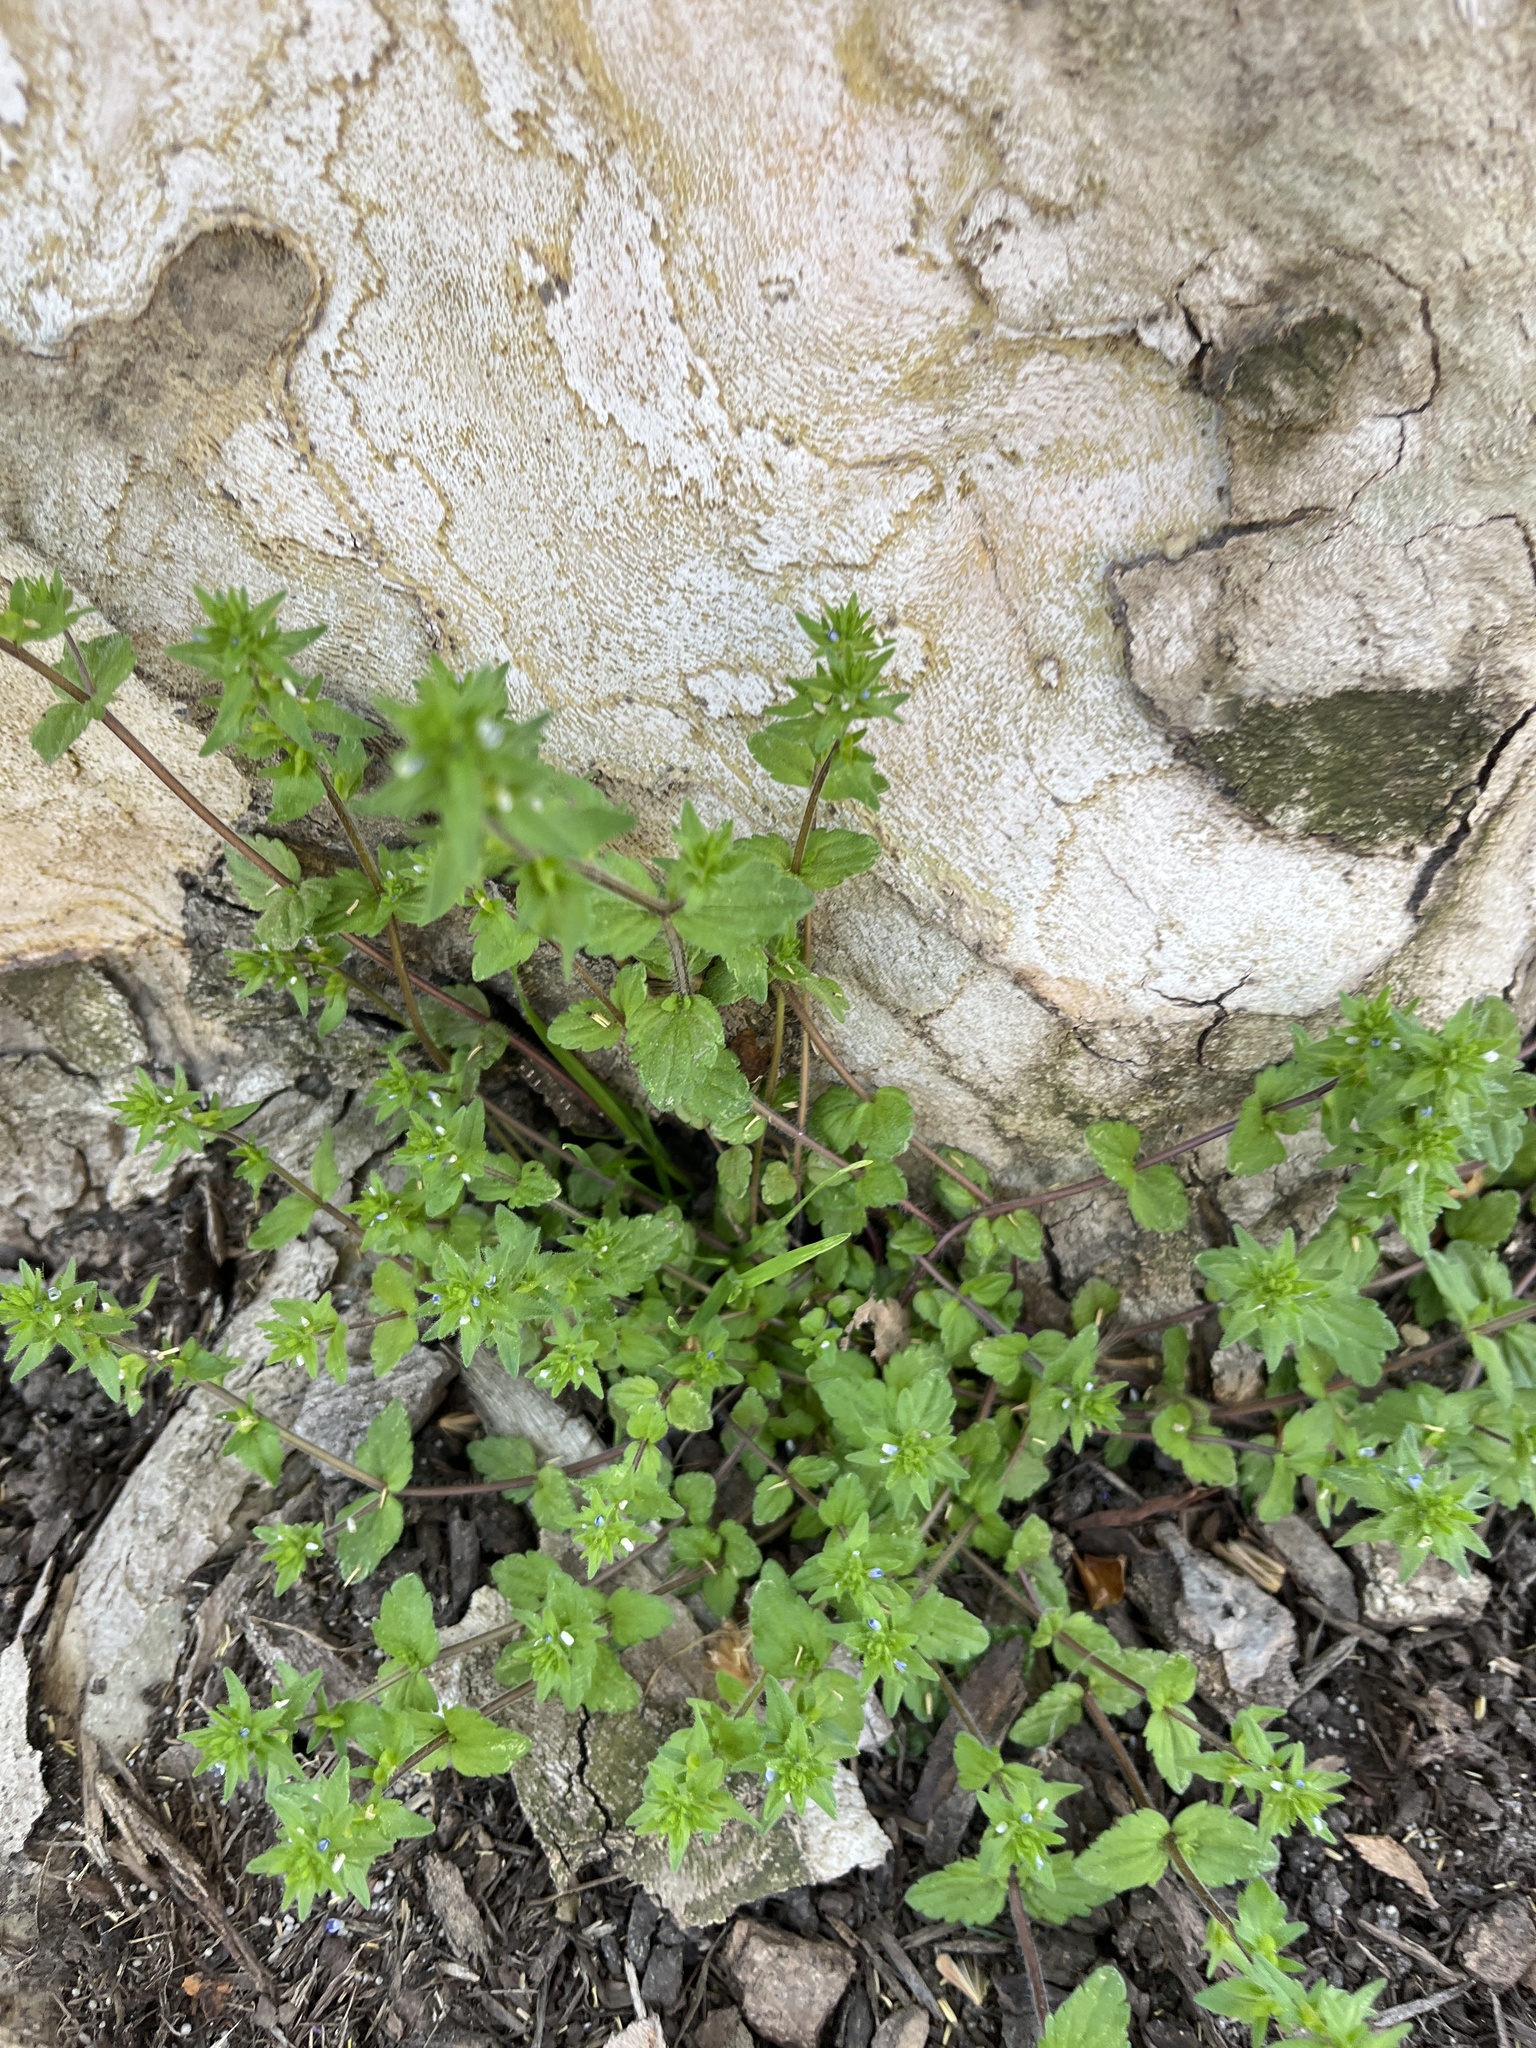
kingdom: Plantae
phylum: Tracheophyta
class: Magnoliopsida
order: Lamiales
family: Plantaginaceae
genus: Veronica
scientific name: Veronica arvensis
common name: Corn speedwell
